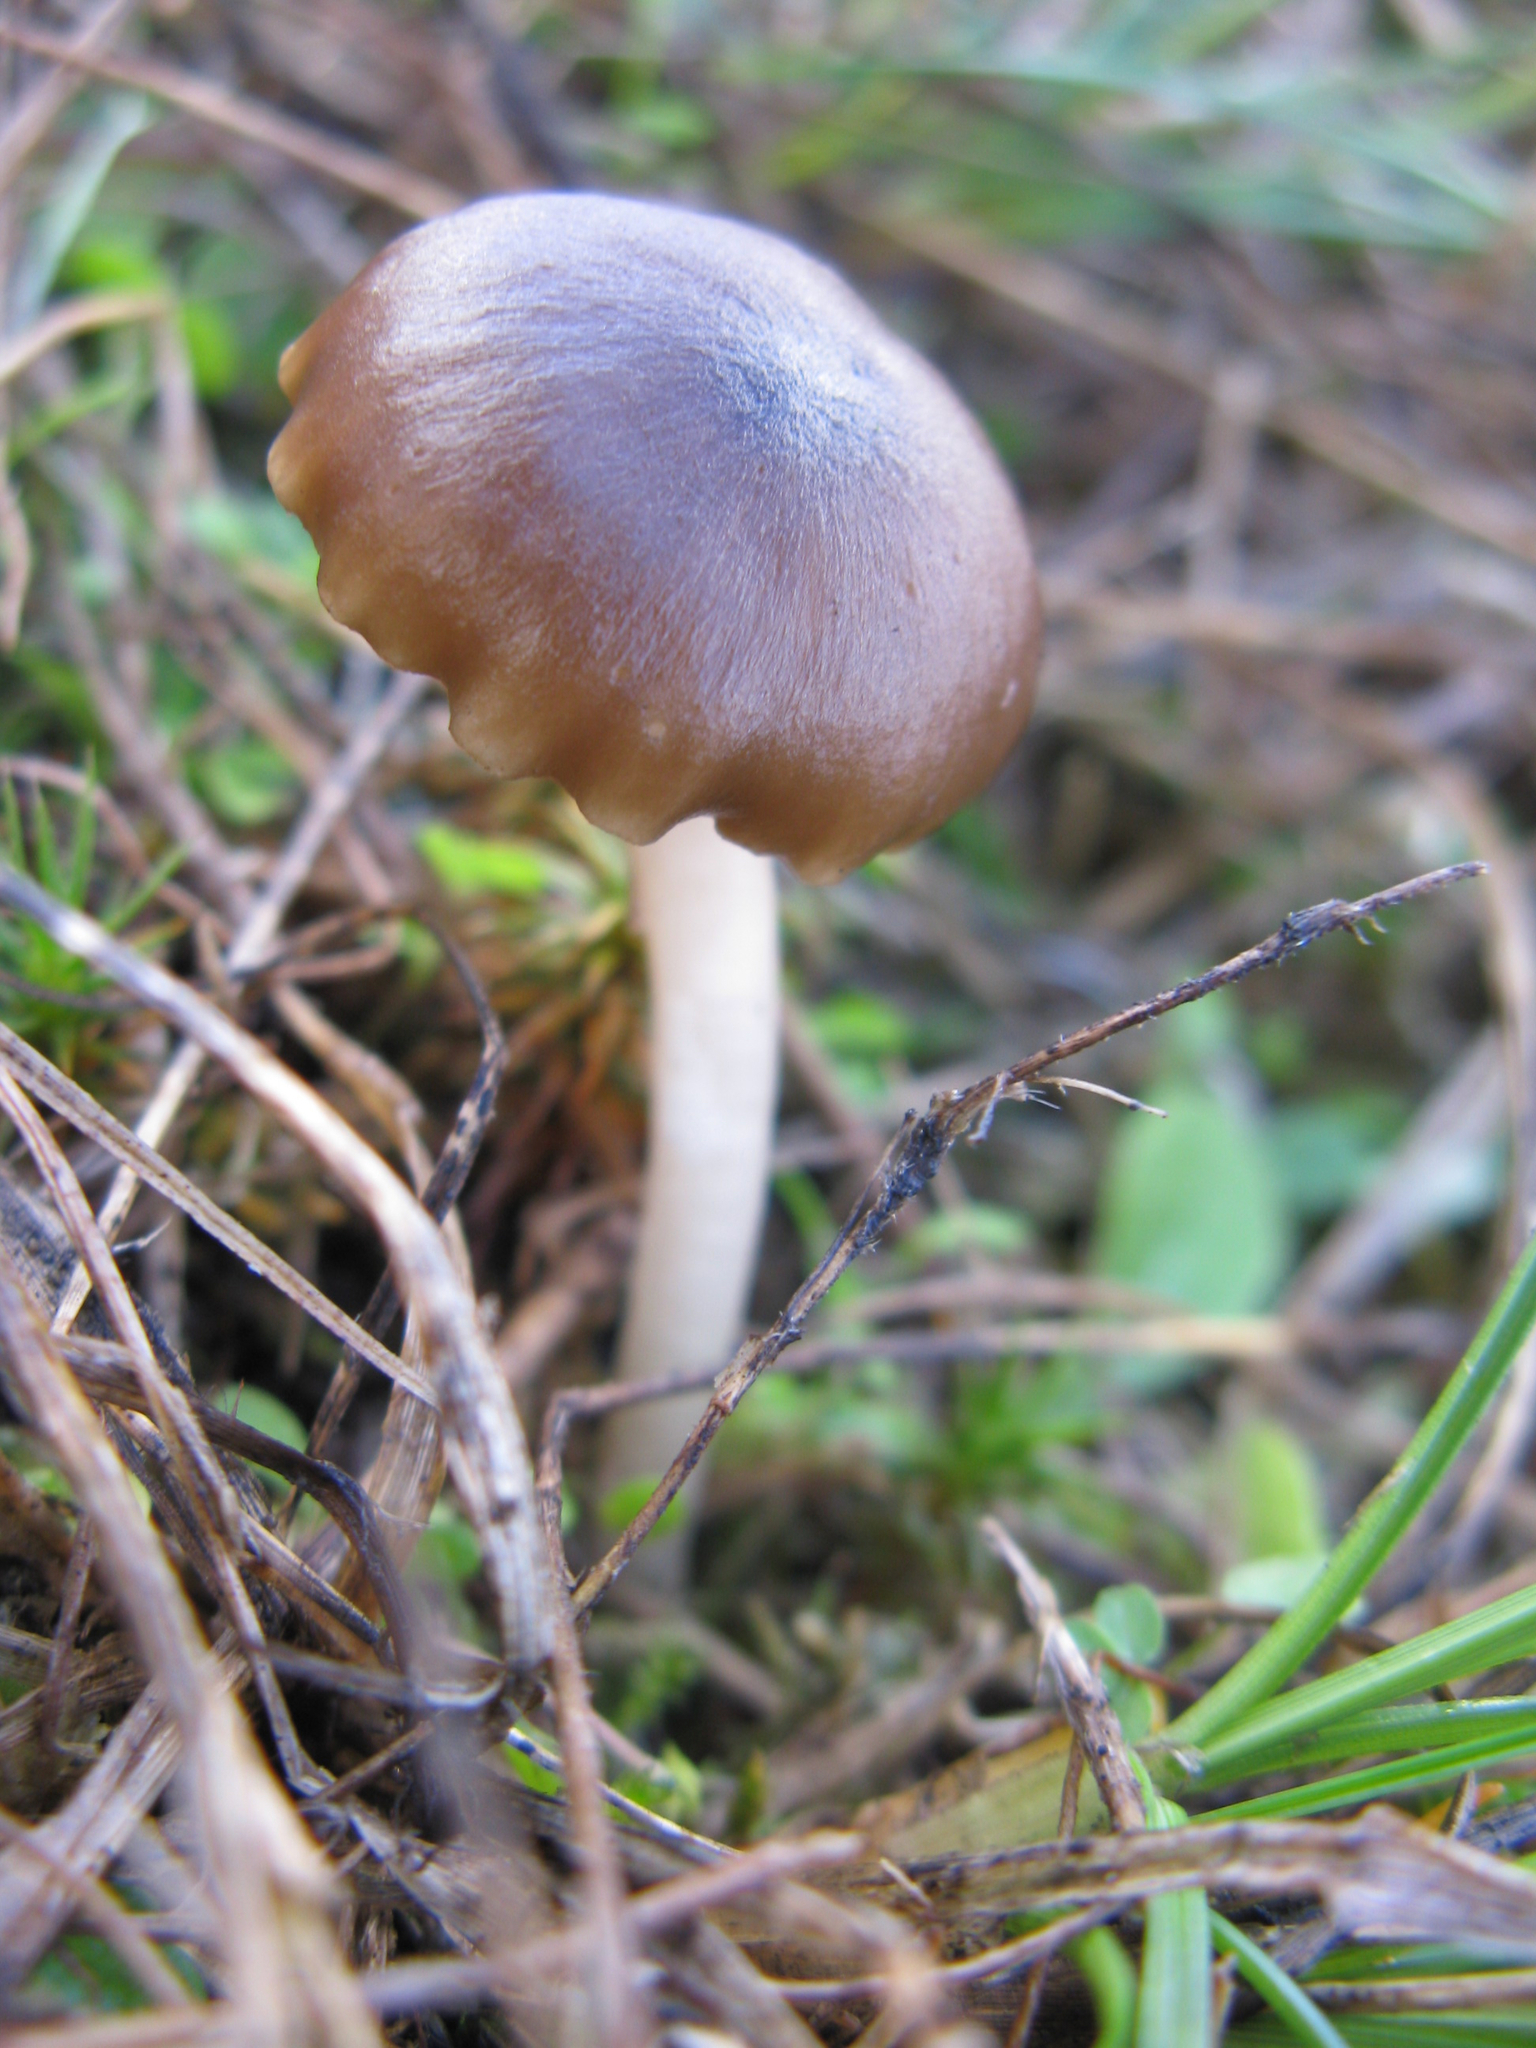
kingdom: Fungi
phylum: Basidiomycota
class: Agaricomycetes
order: Agaricales
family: Hygrophoraceae
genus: Cuphophyllus
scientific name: Cuphophyllus recurvatus
